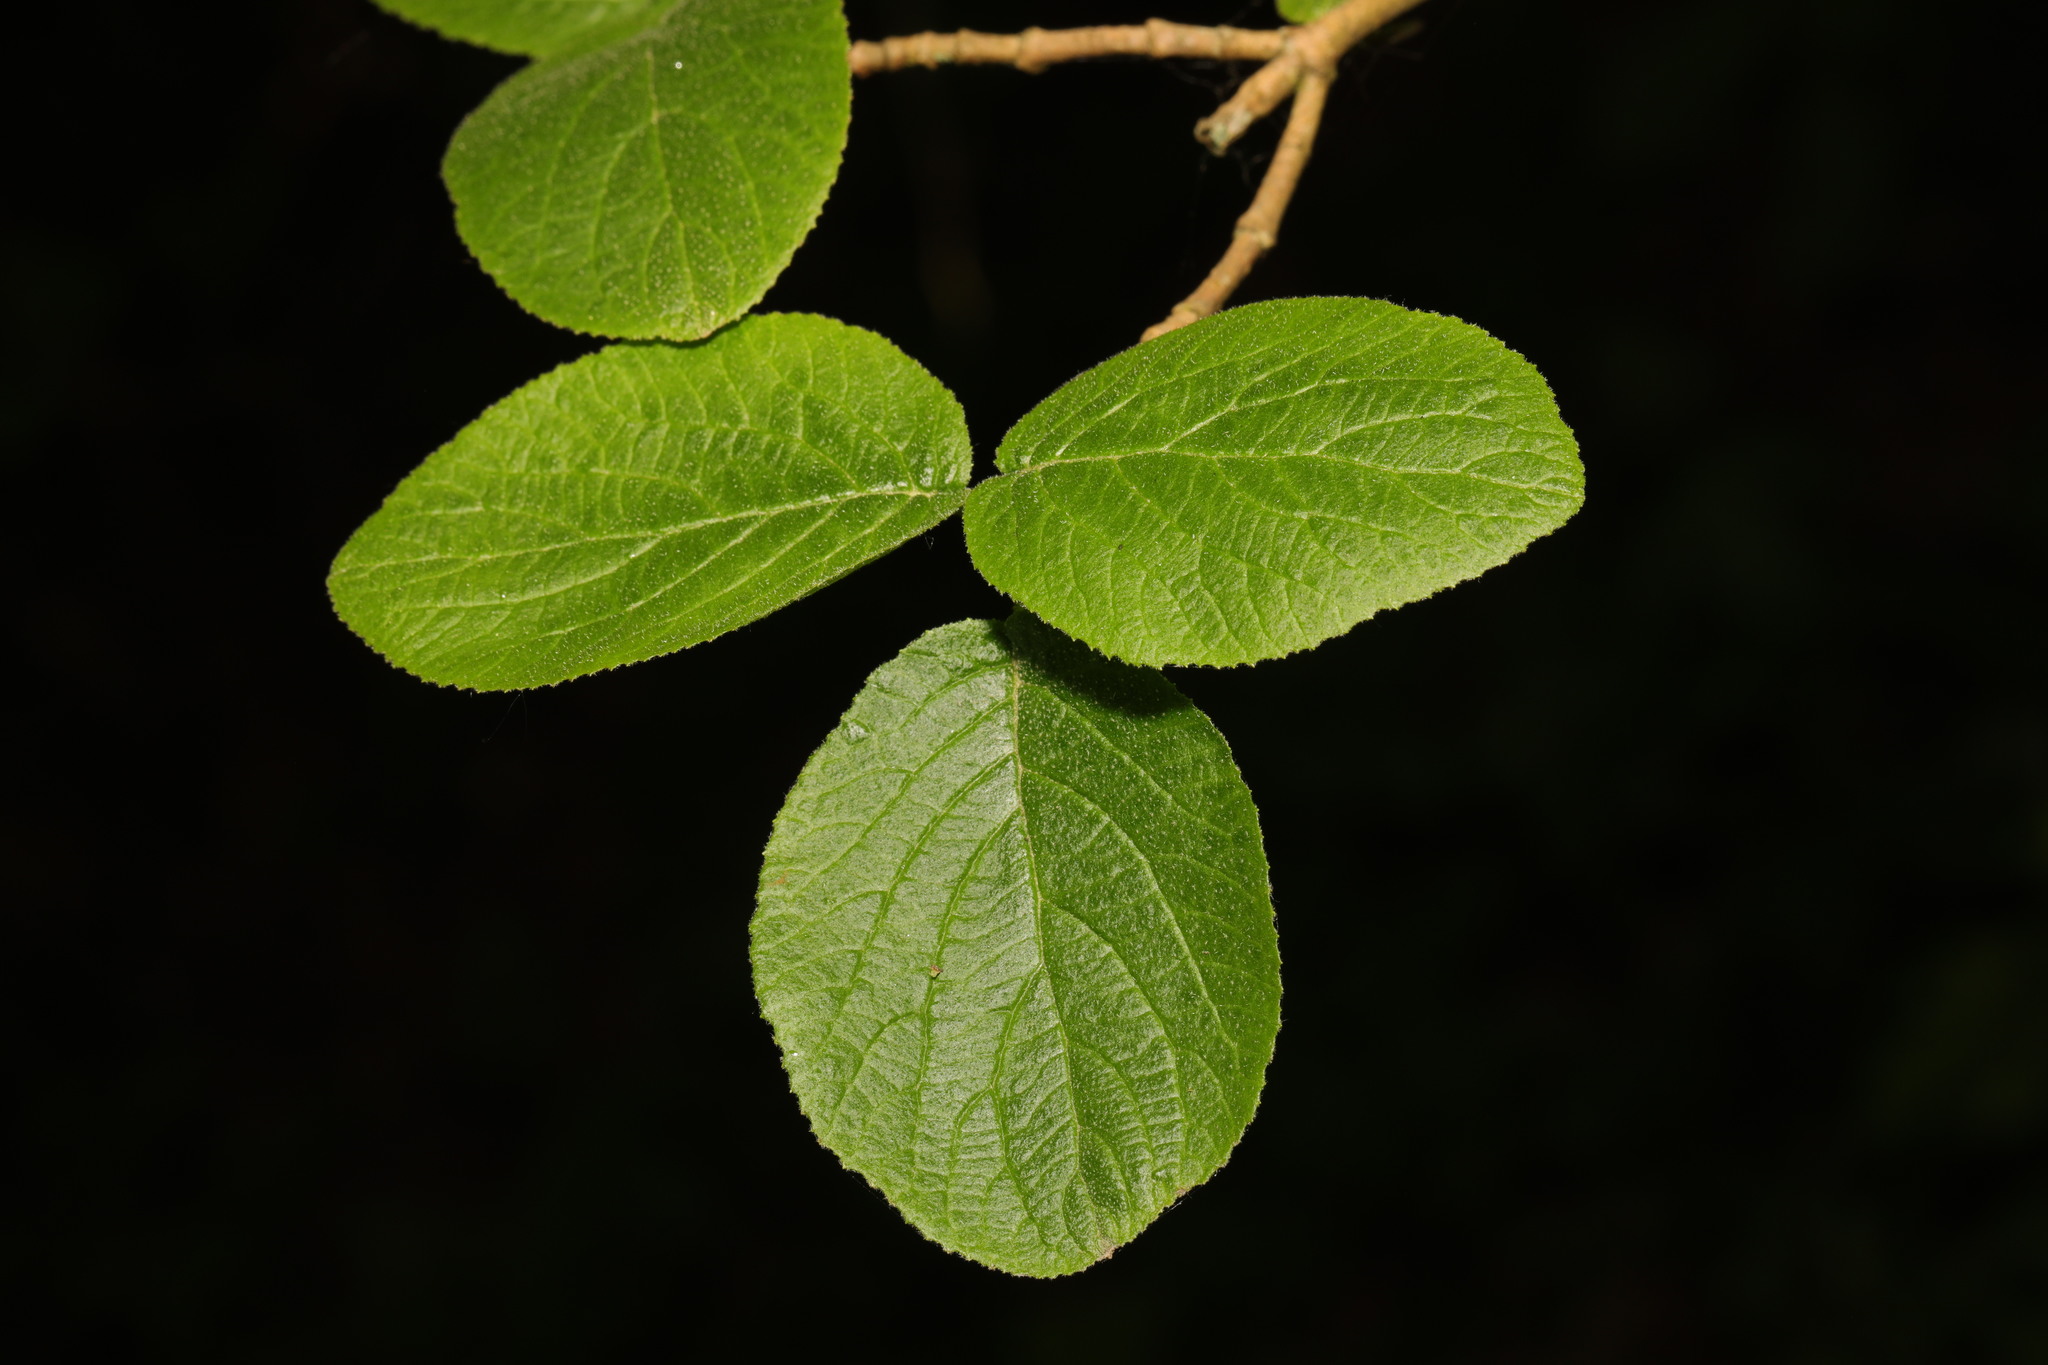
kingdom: Plantae
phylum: Tracheophyta
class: Magnoliopsida
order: Dipsacales
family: Viburnaceae
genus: Viburnum
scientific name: Viburnum lantana
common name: Wayfaring tree
